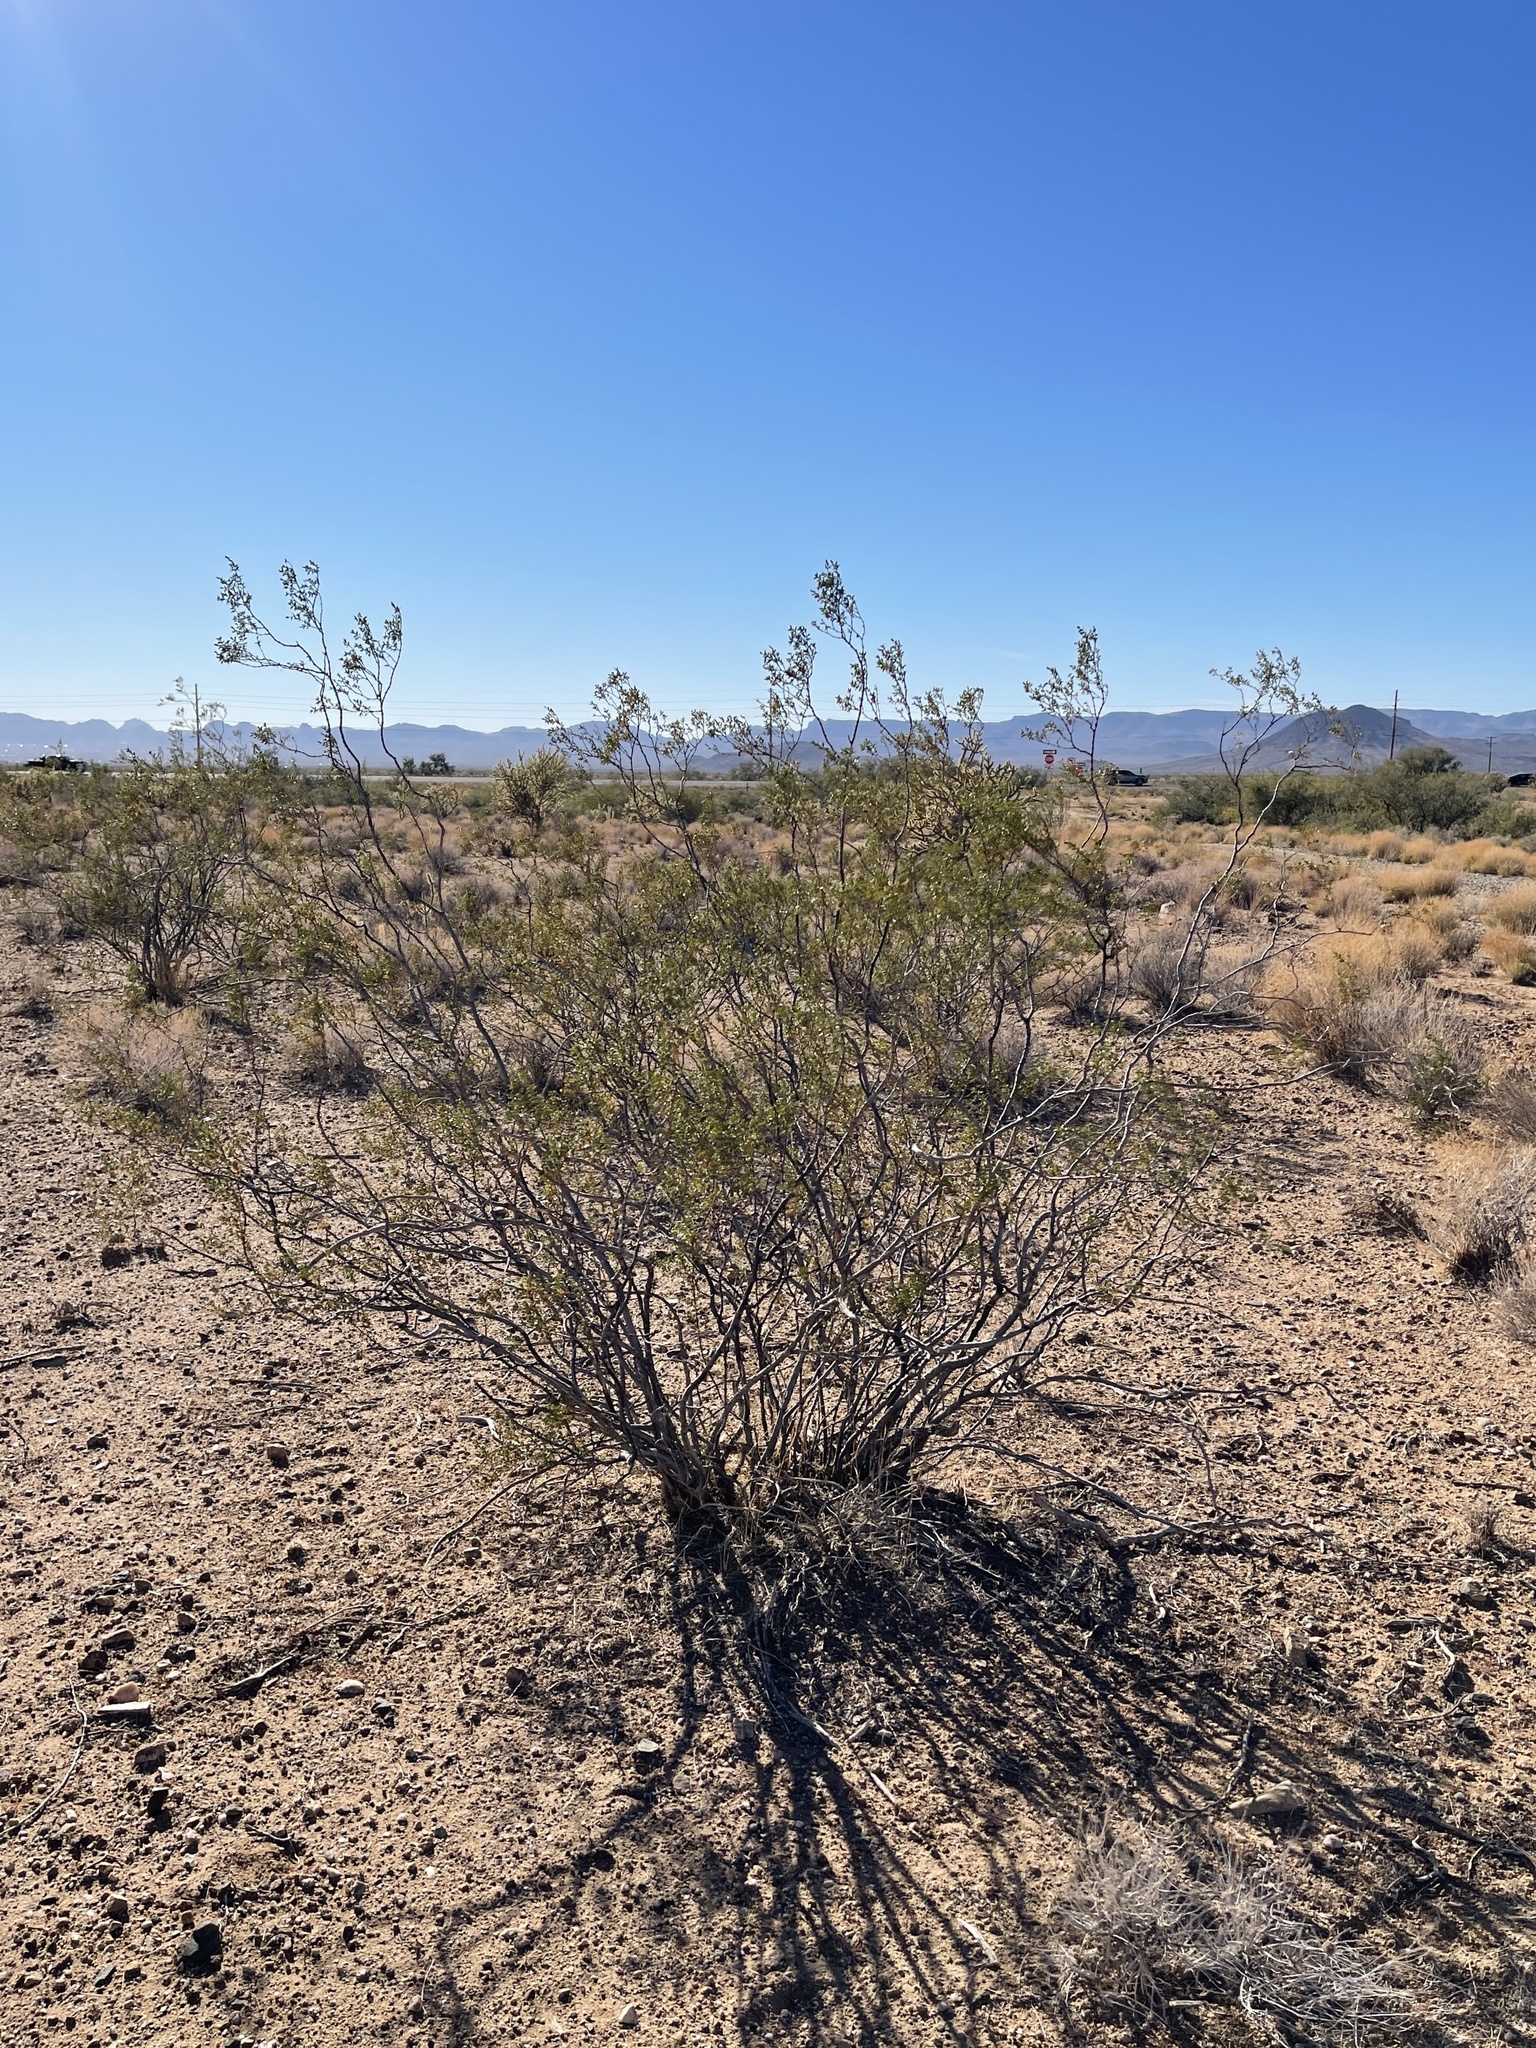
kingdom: Plantae
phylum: Tracheophyta
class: Magnoliopsida
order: Zygophyllales
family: Zygophyllaceae
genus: Larrea
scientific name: Larrea tridentata
